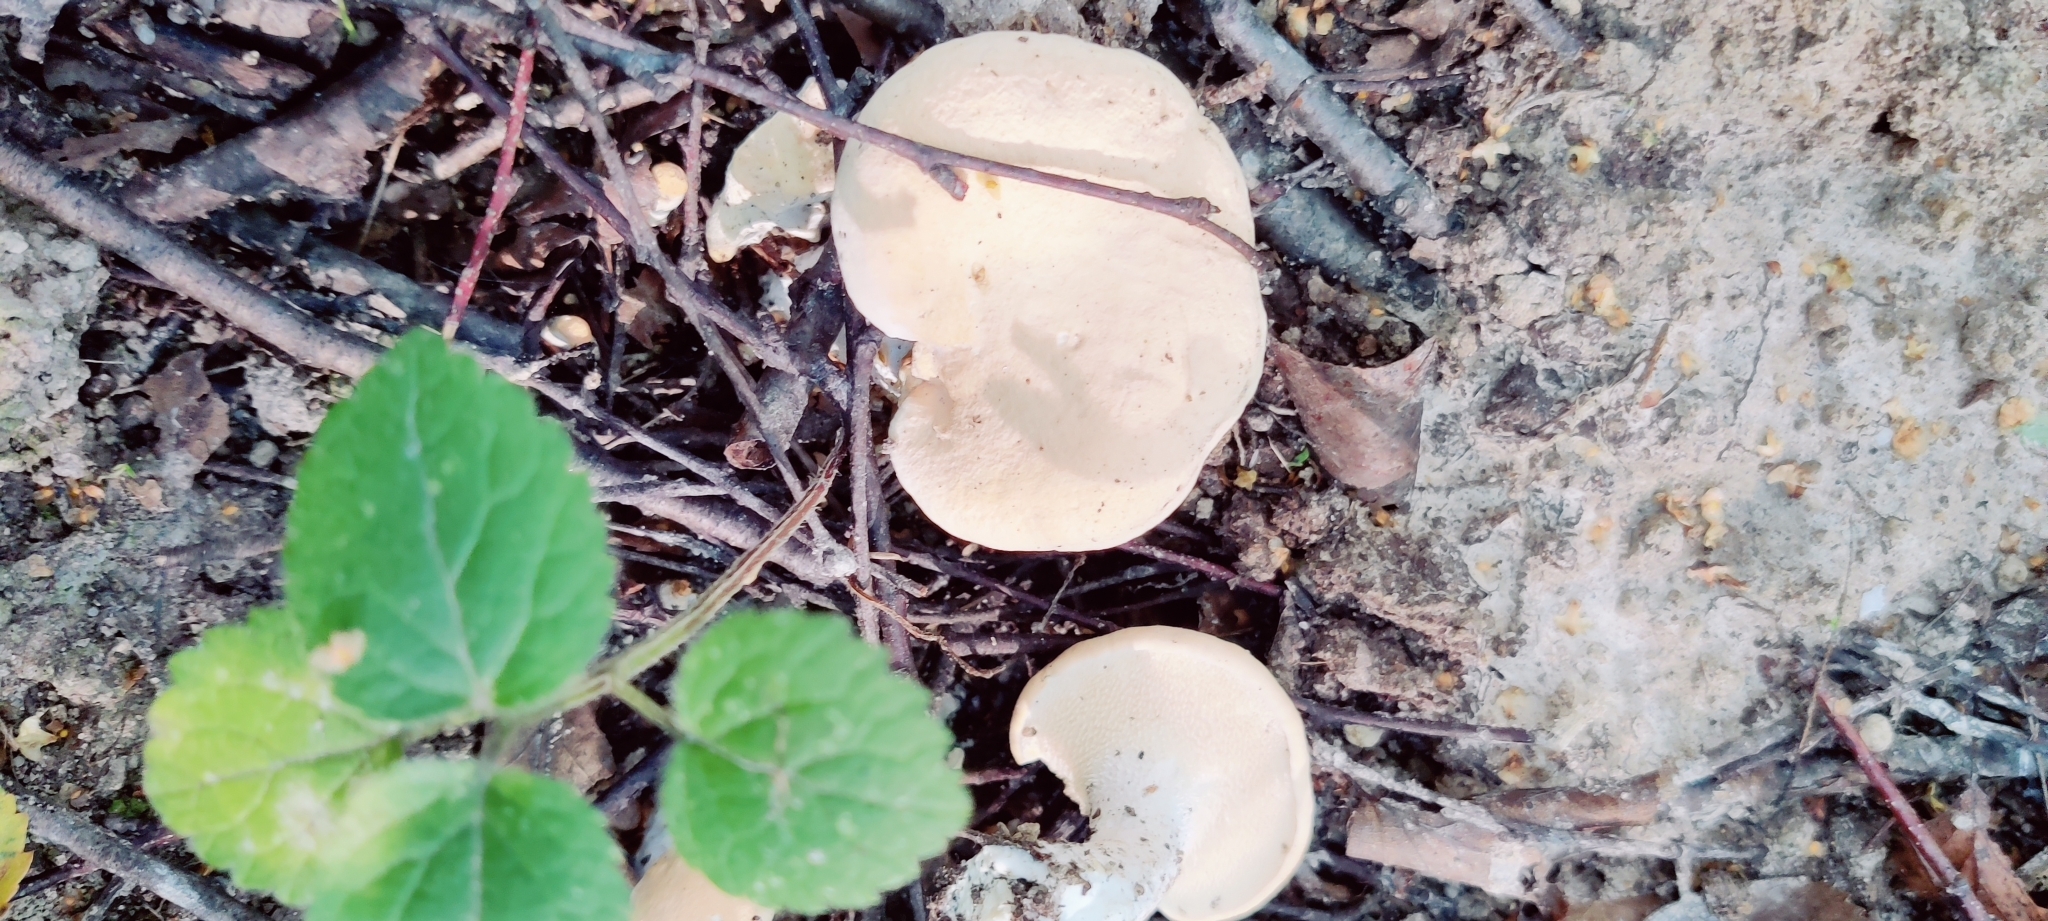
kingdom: Fungi
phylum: Basidiomycota
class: Agaricomycetes
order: Cantharellales
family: Hydnaceae
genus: Hydnum
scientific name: Hydnum repandum
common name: Wood hedgehog
